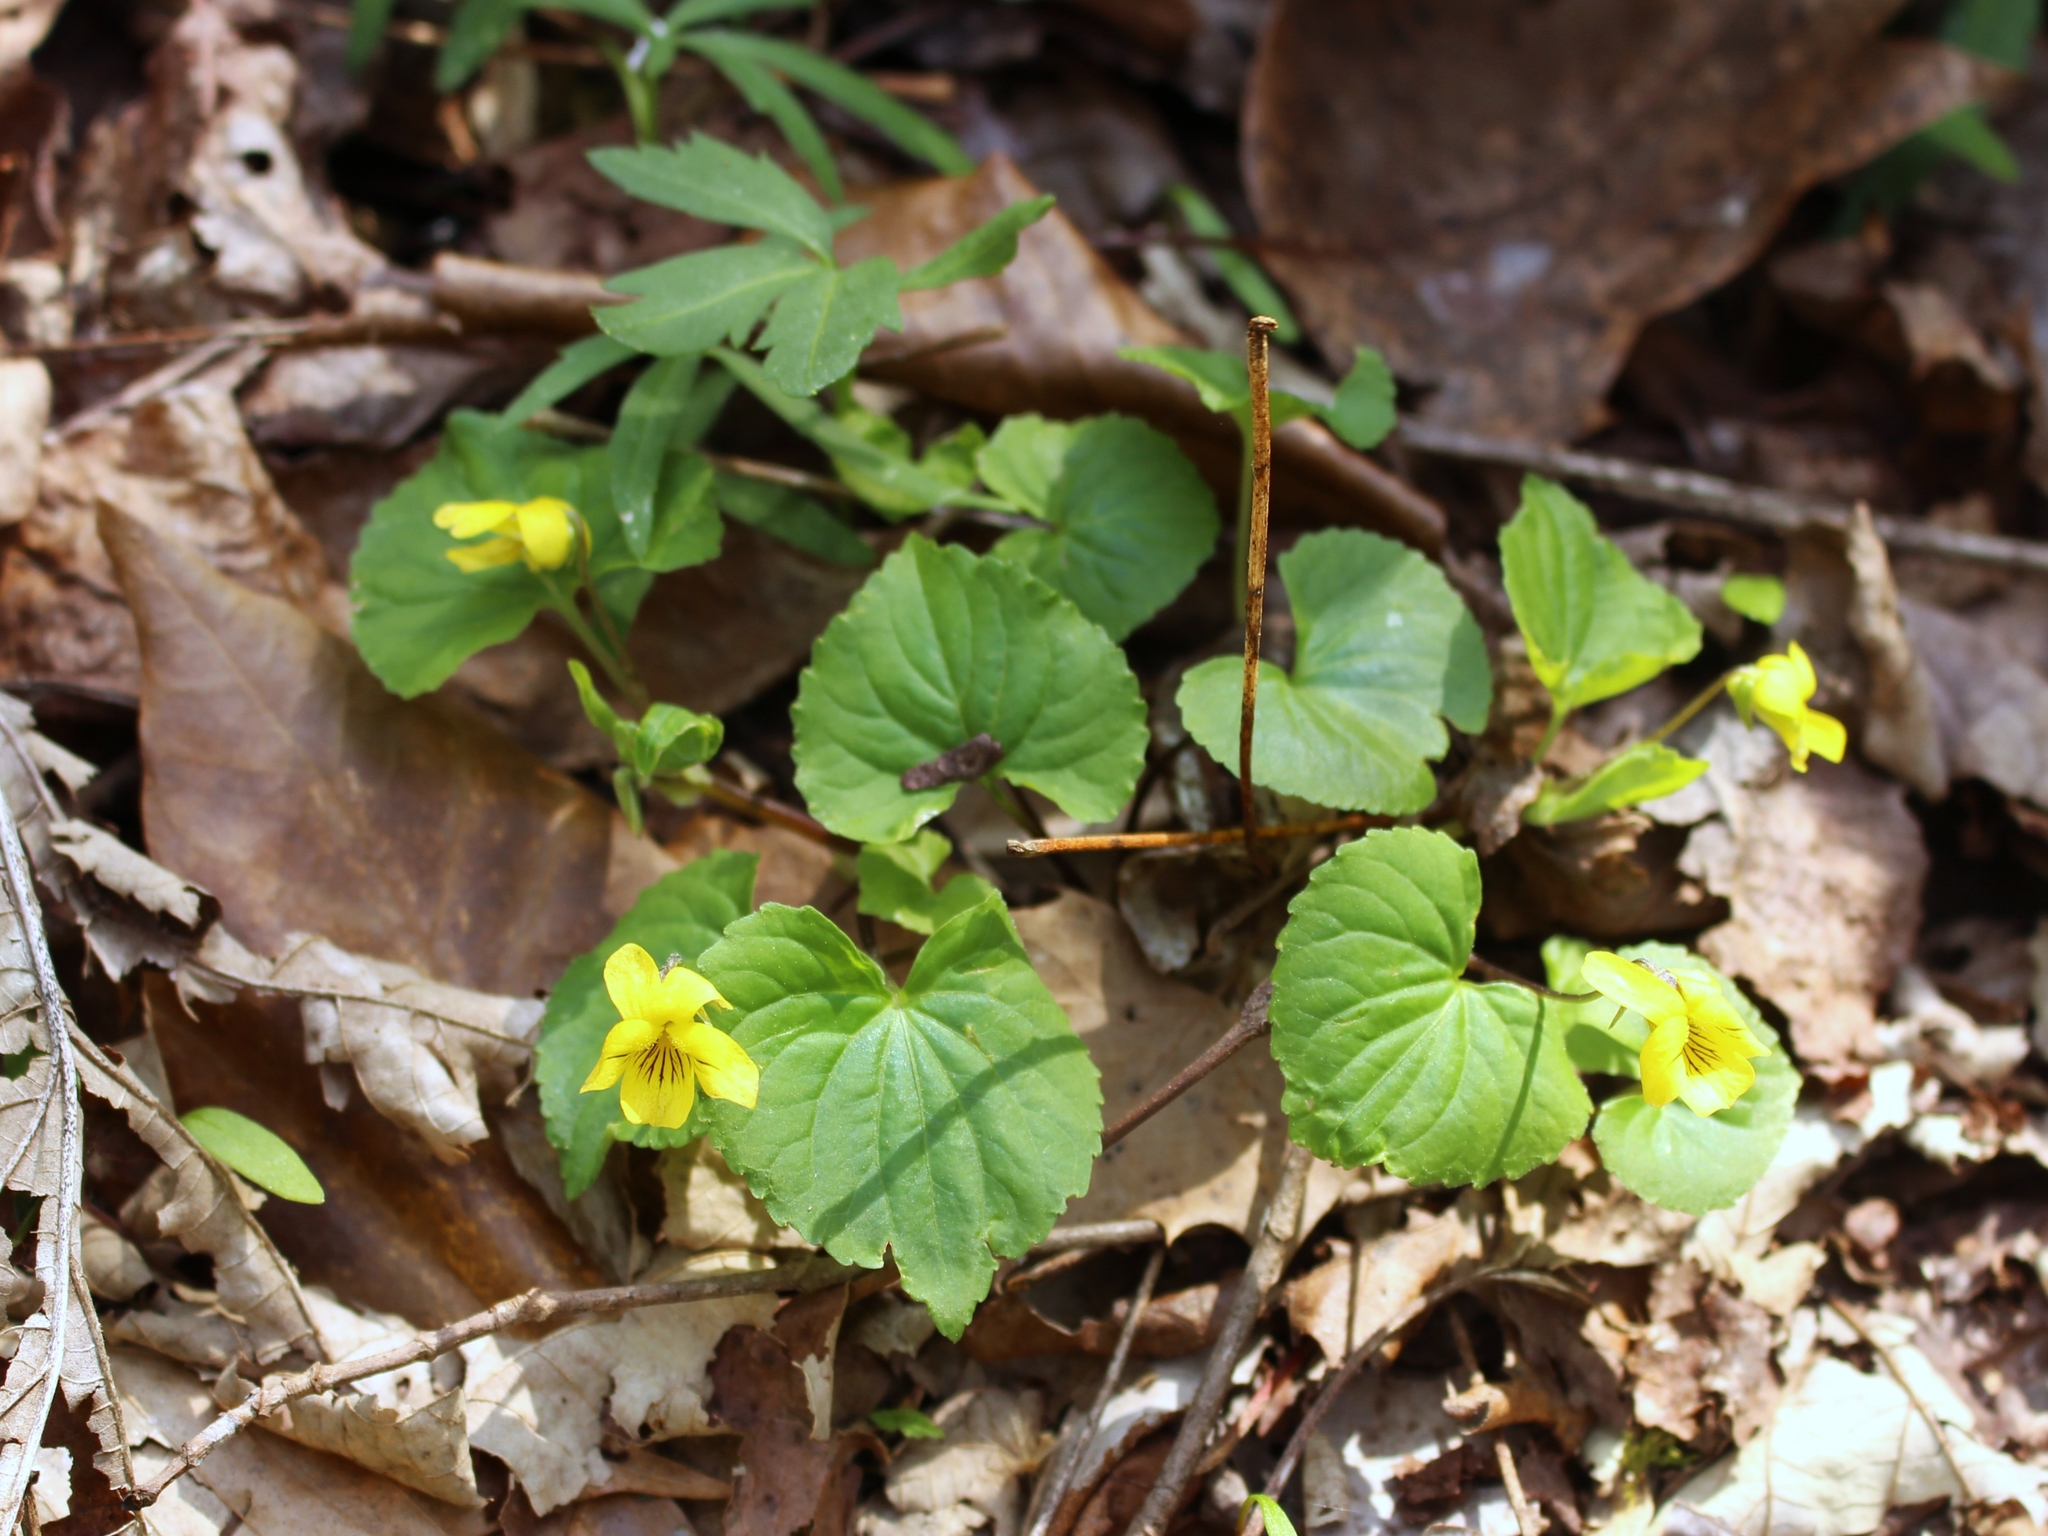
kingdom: Plantae
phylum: Tracheophyta
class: Magnoliopsida
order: Malpighiales
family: Violaceae
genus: Viola
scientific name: Viola eriocarpa
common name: Smooth yellow violet
